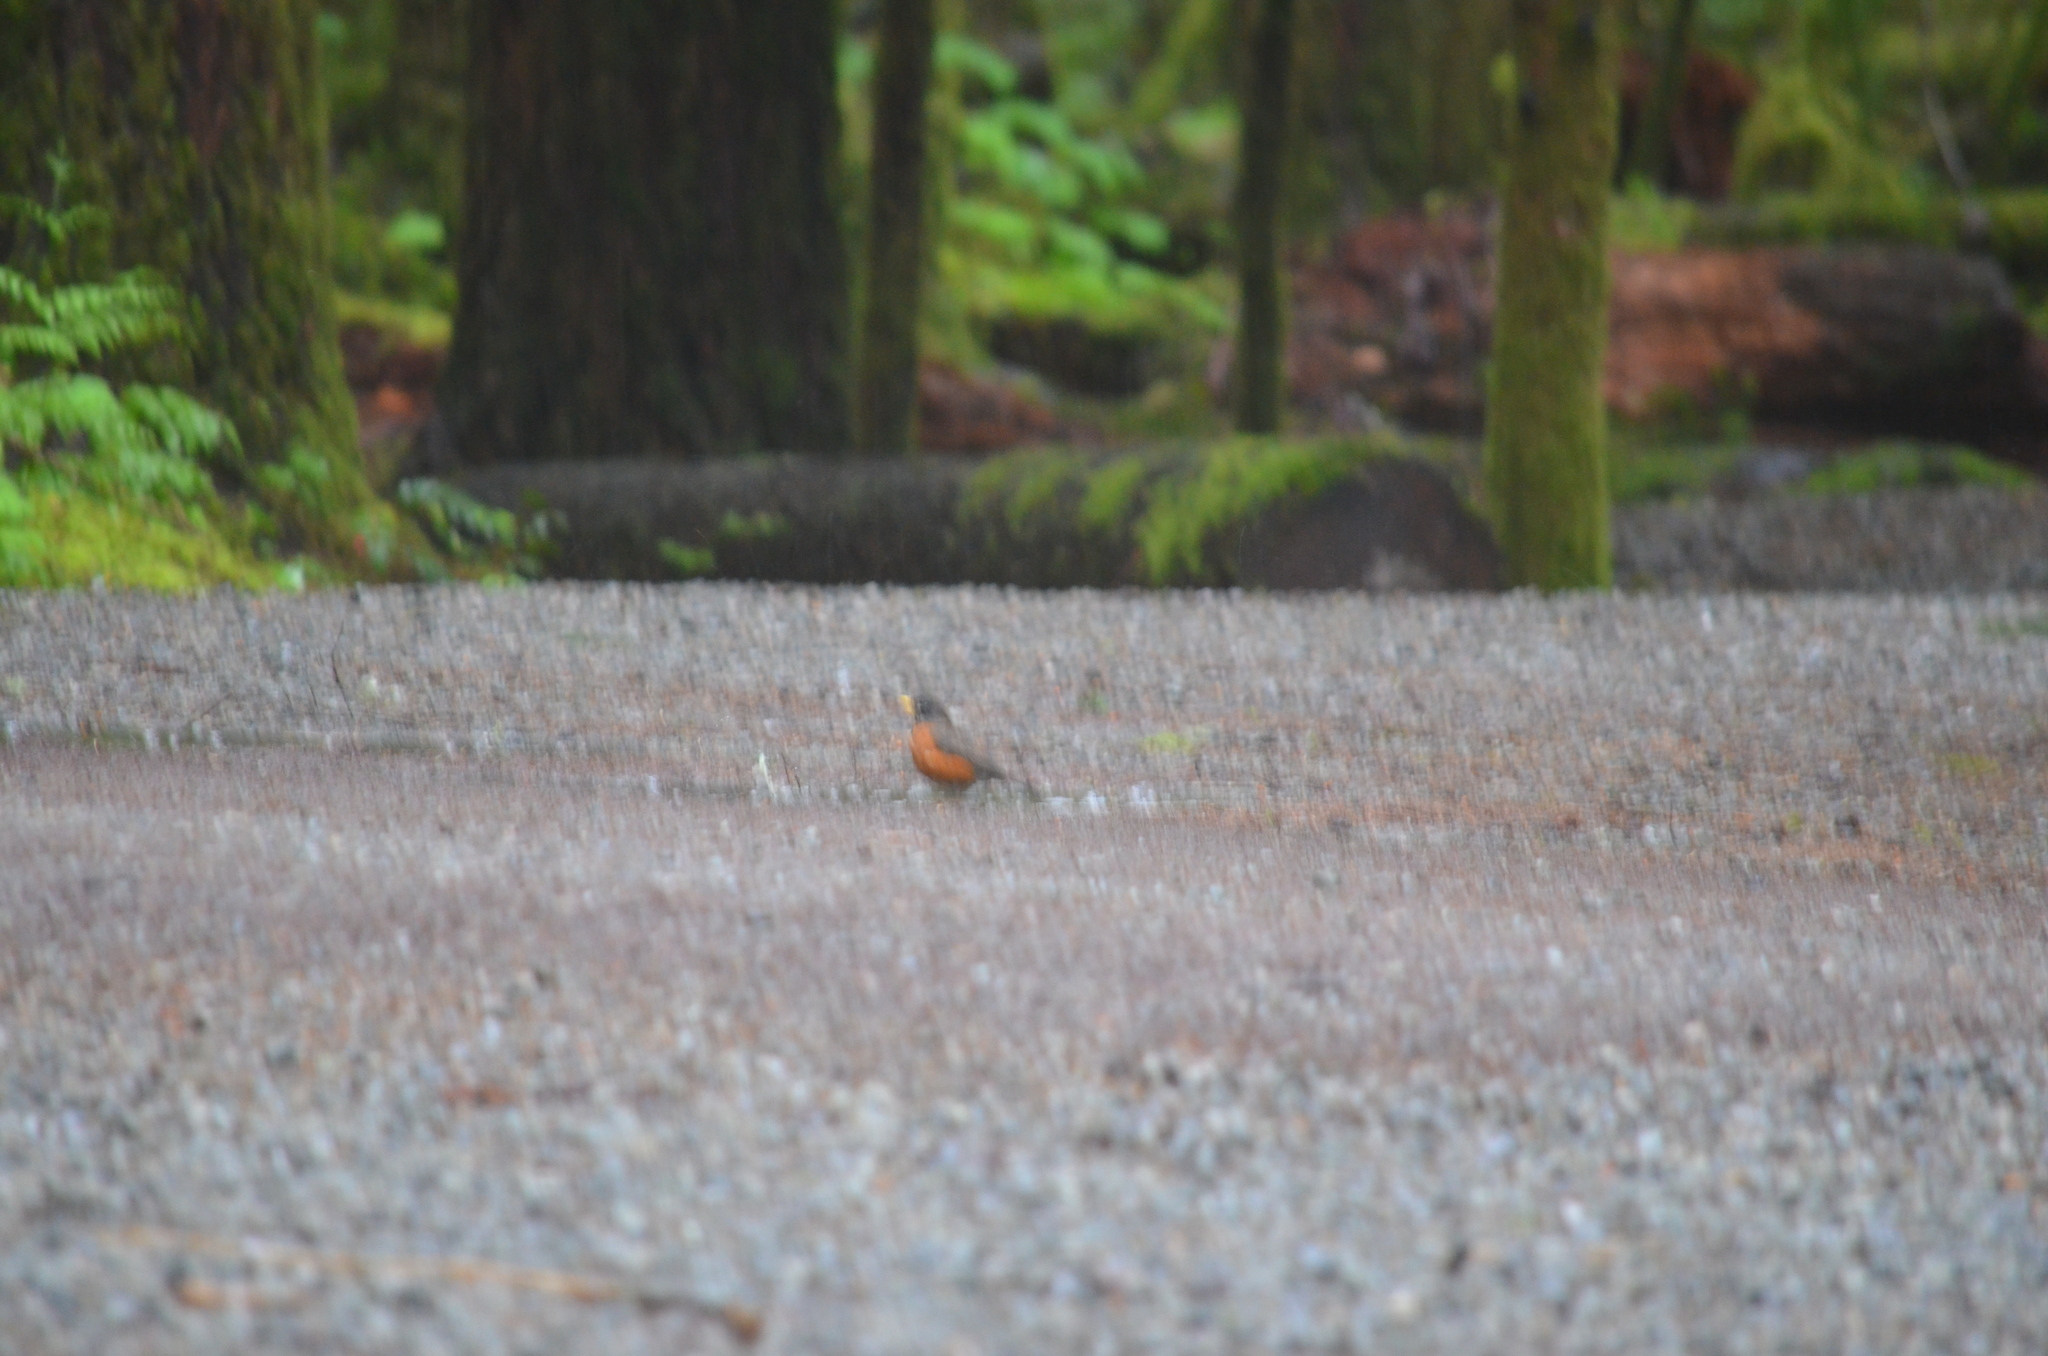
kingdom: Animalia
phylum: Chordata
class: Aves
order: Passeriformes
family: Turdidae
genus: Turdus
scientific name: Turdus migratorius
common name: American robin
